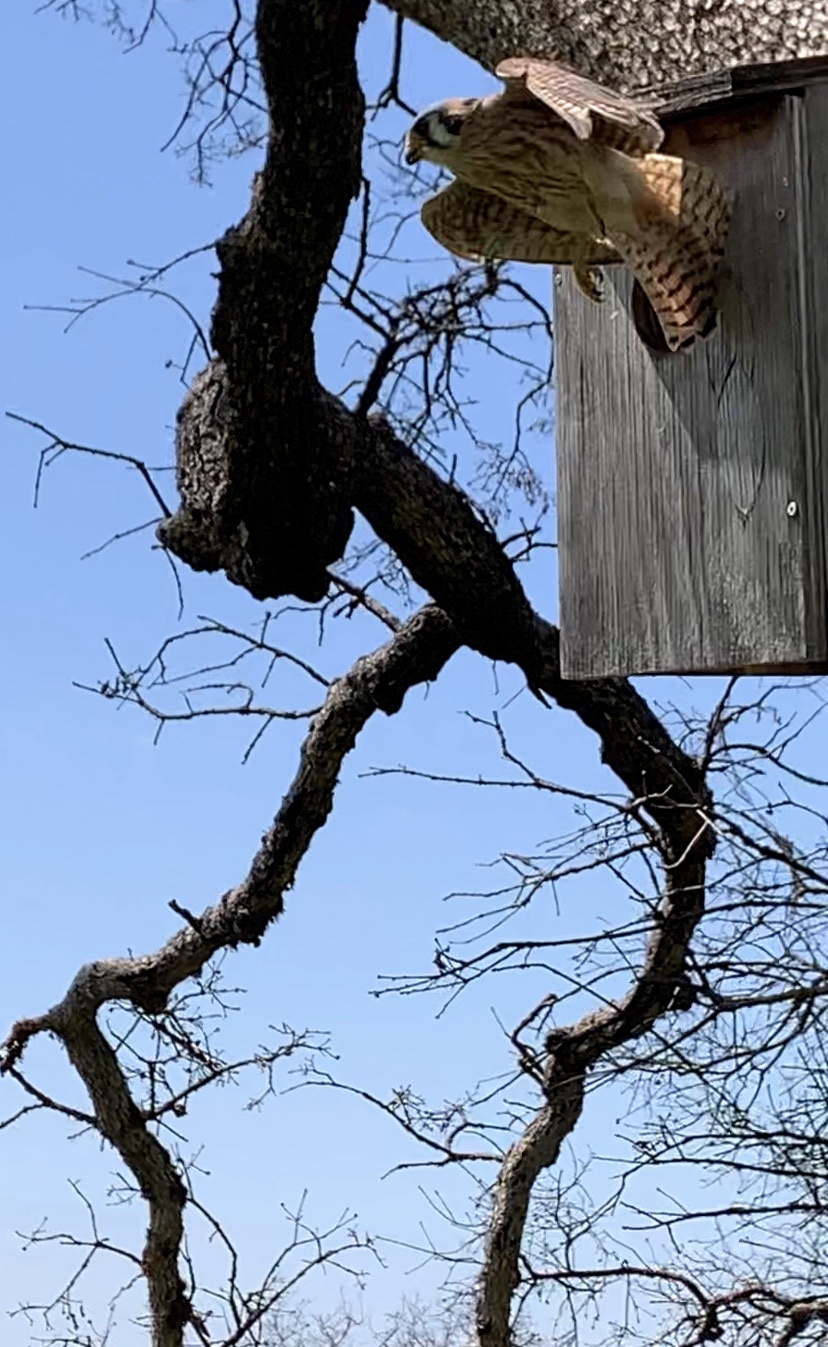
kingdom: Animalia
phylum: Chordata
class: Aves
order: Falconiformes
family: Falconidae
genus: Falco
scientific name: Falco sparverius
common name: American kestrel
